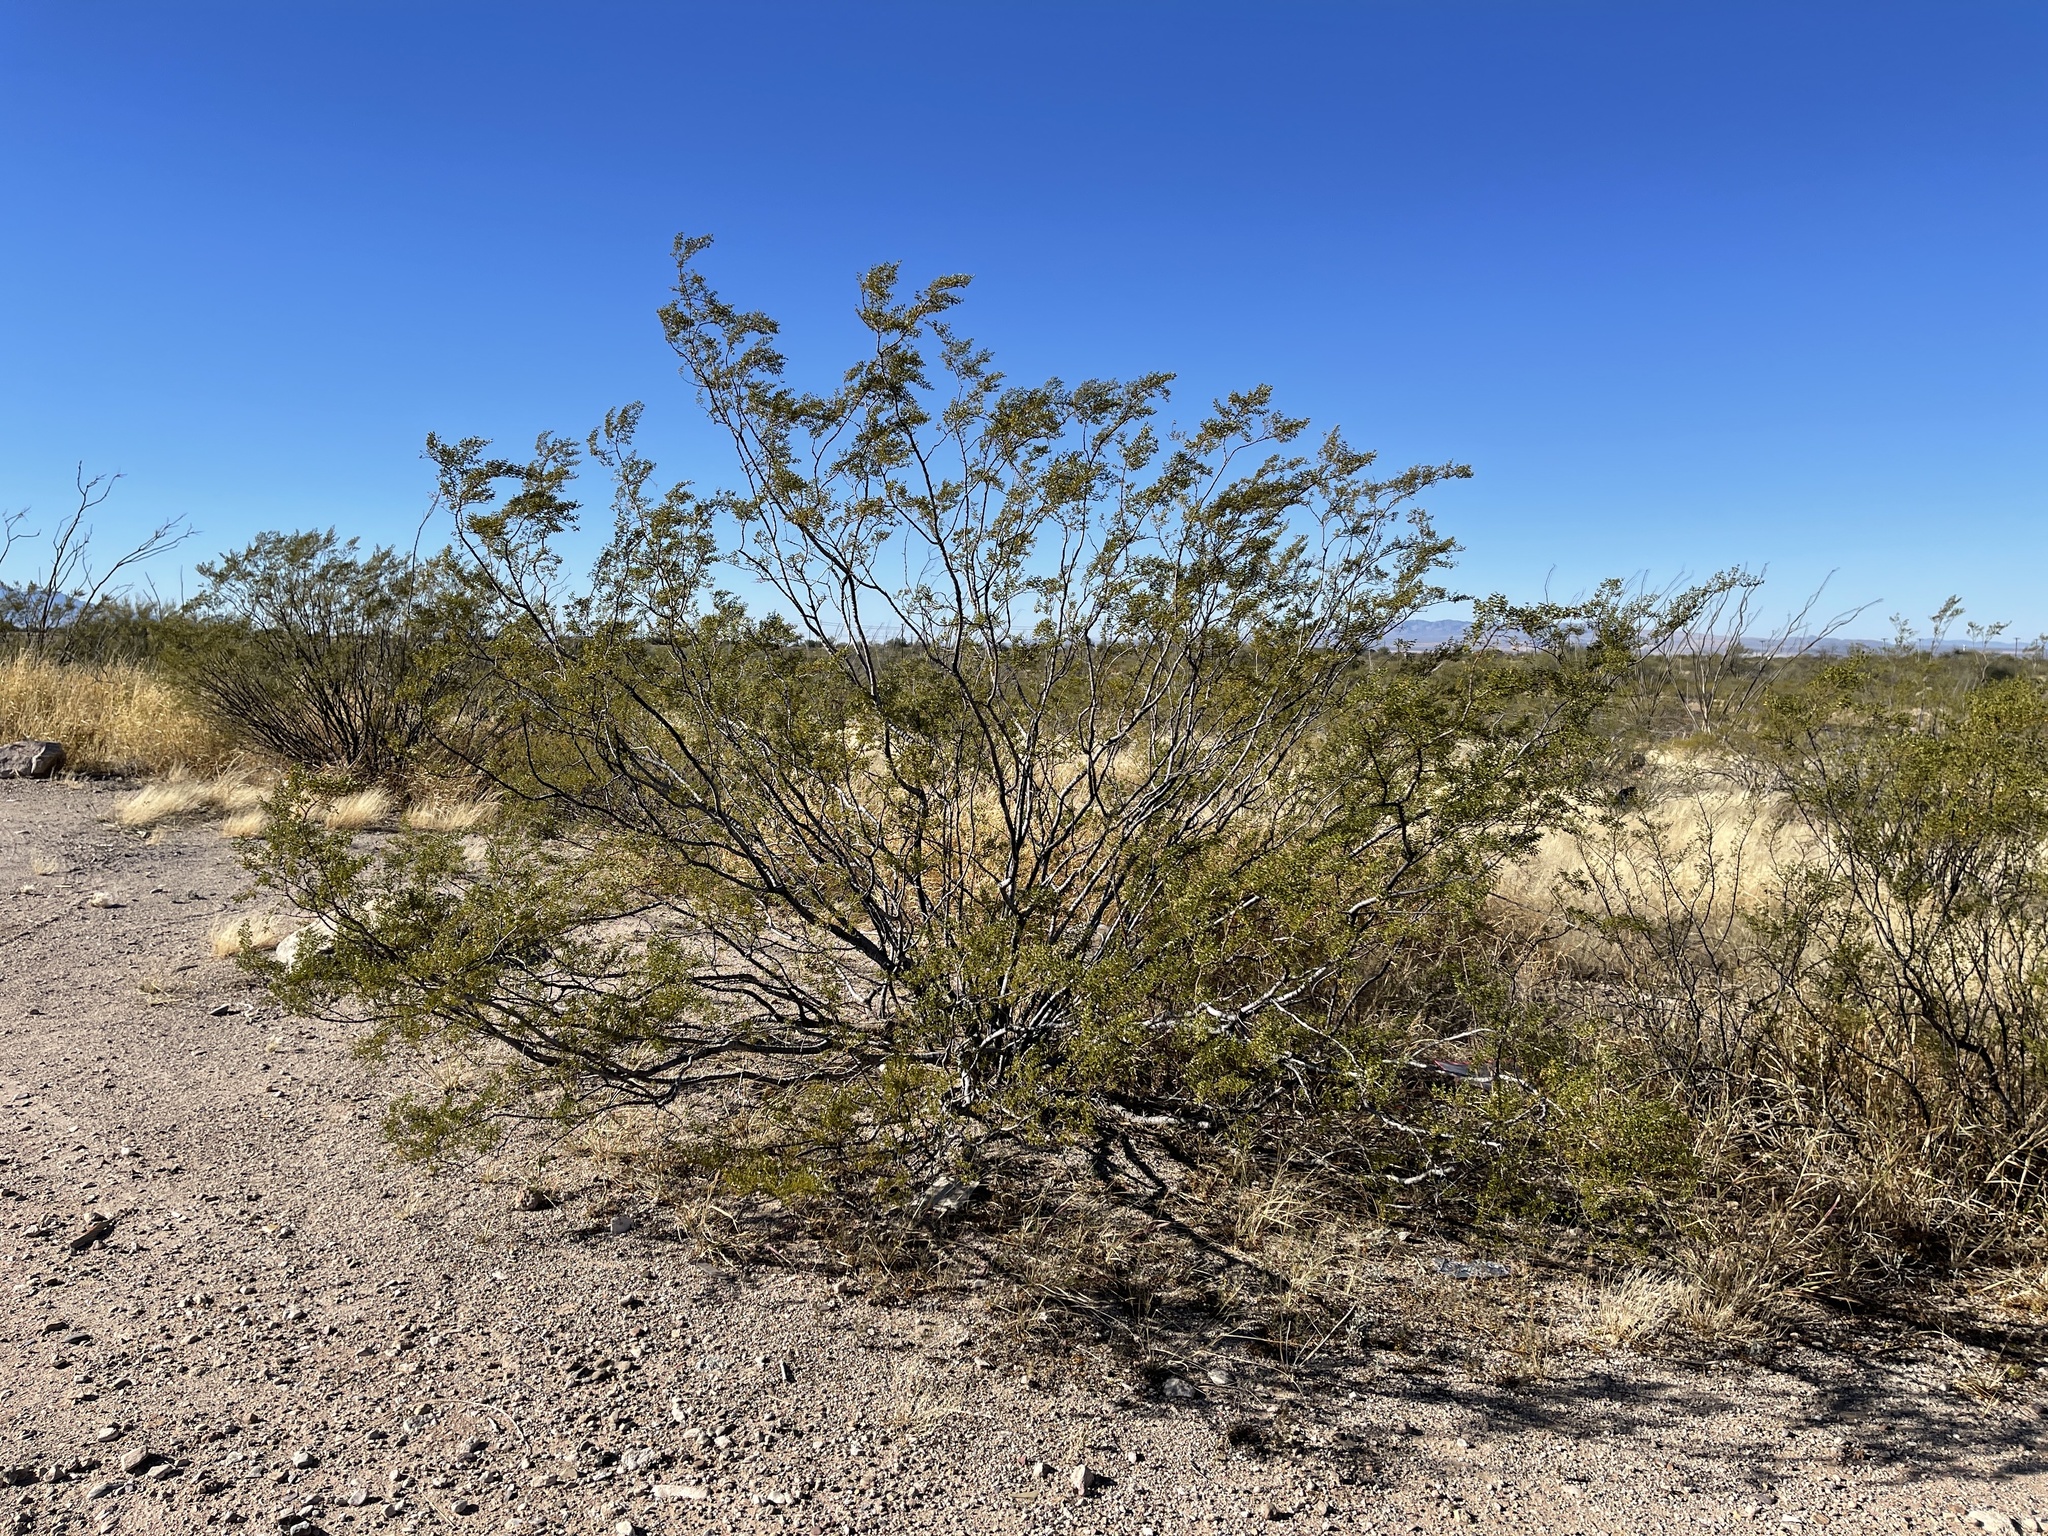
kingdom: Plantae
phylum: Tracheophyta
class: Magnoliopsida
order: Zygophyllales
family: Zygophyllaceae
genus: Larrea
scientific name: Larrea tridentata
